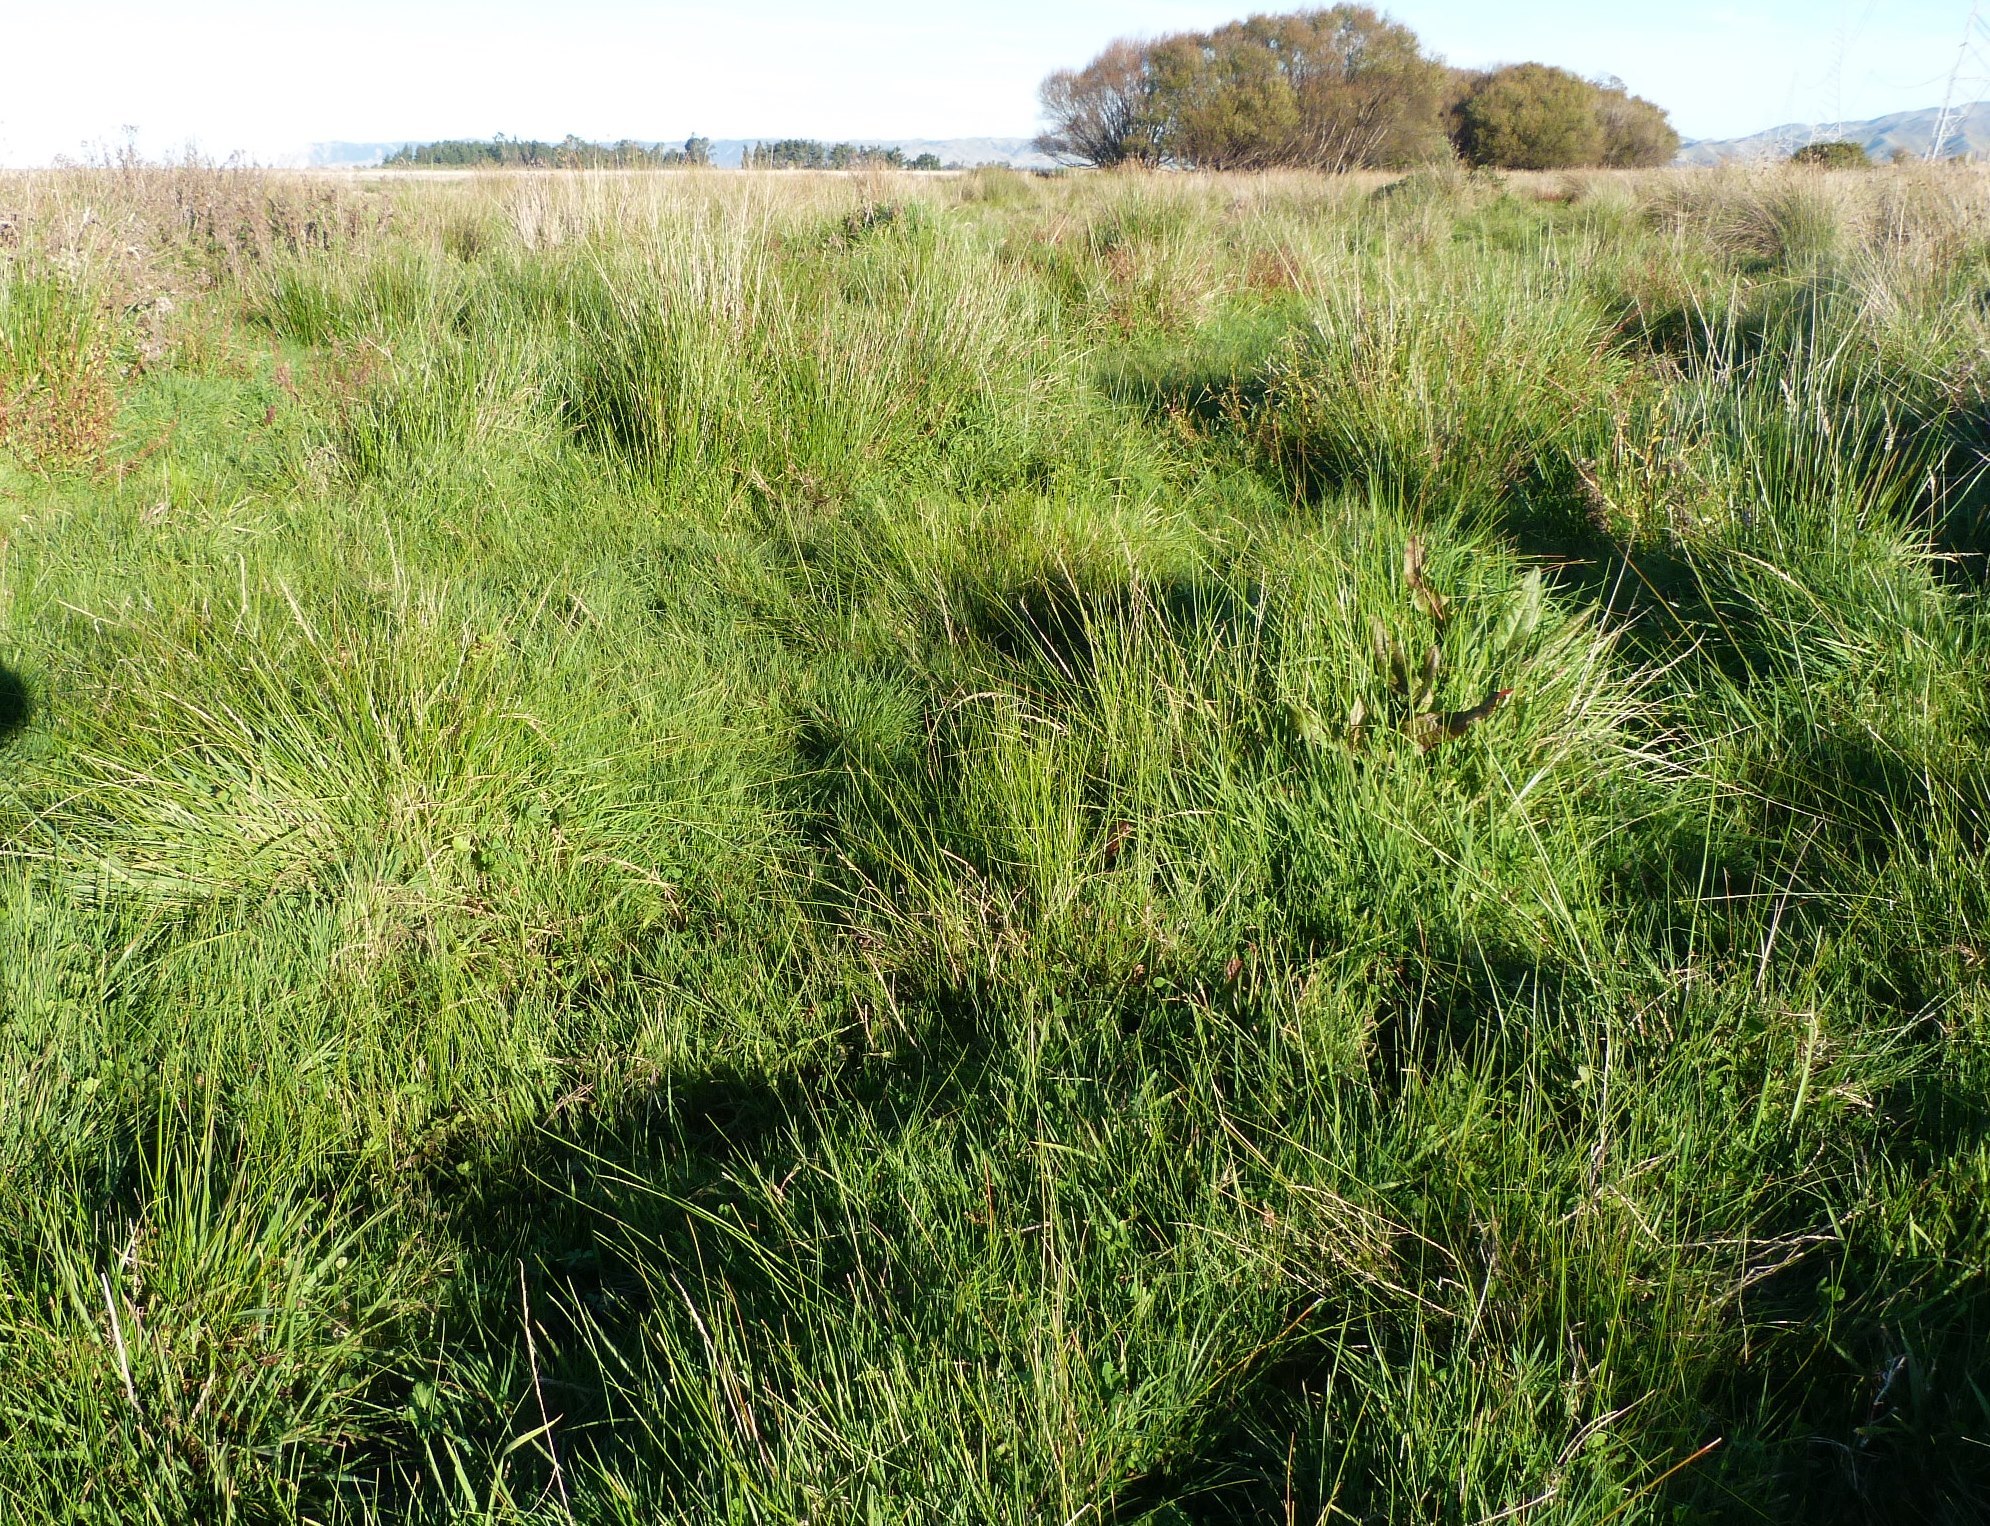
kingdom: Plantae
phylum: Tracheophyta
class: Liliopsida
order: Poales
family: Cyperaceae
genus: Eleocharis
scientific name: Eleocharis acuta
